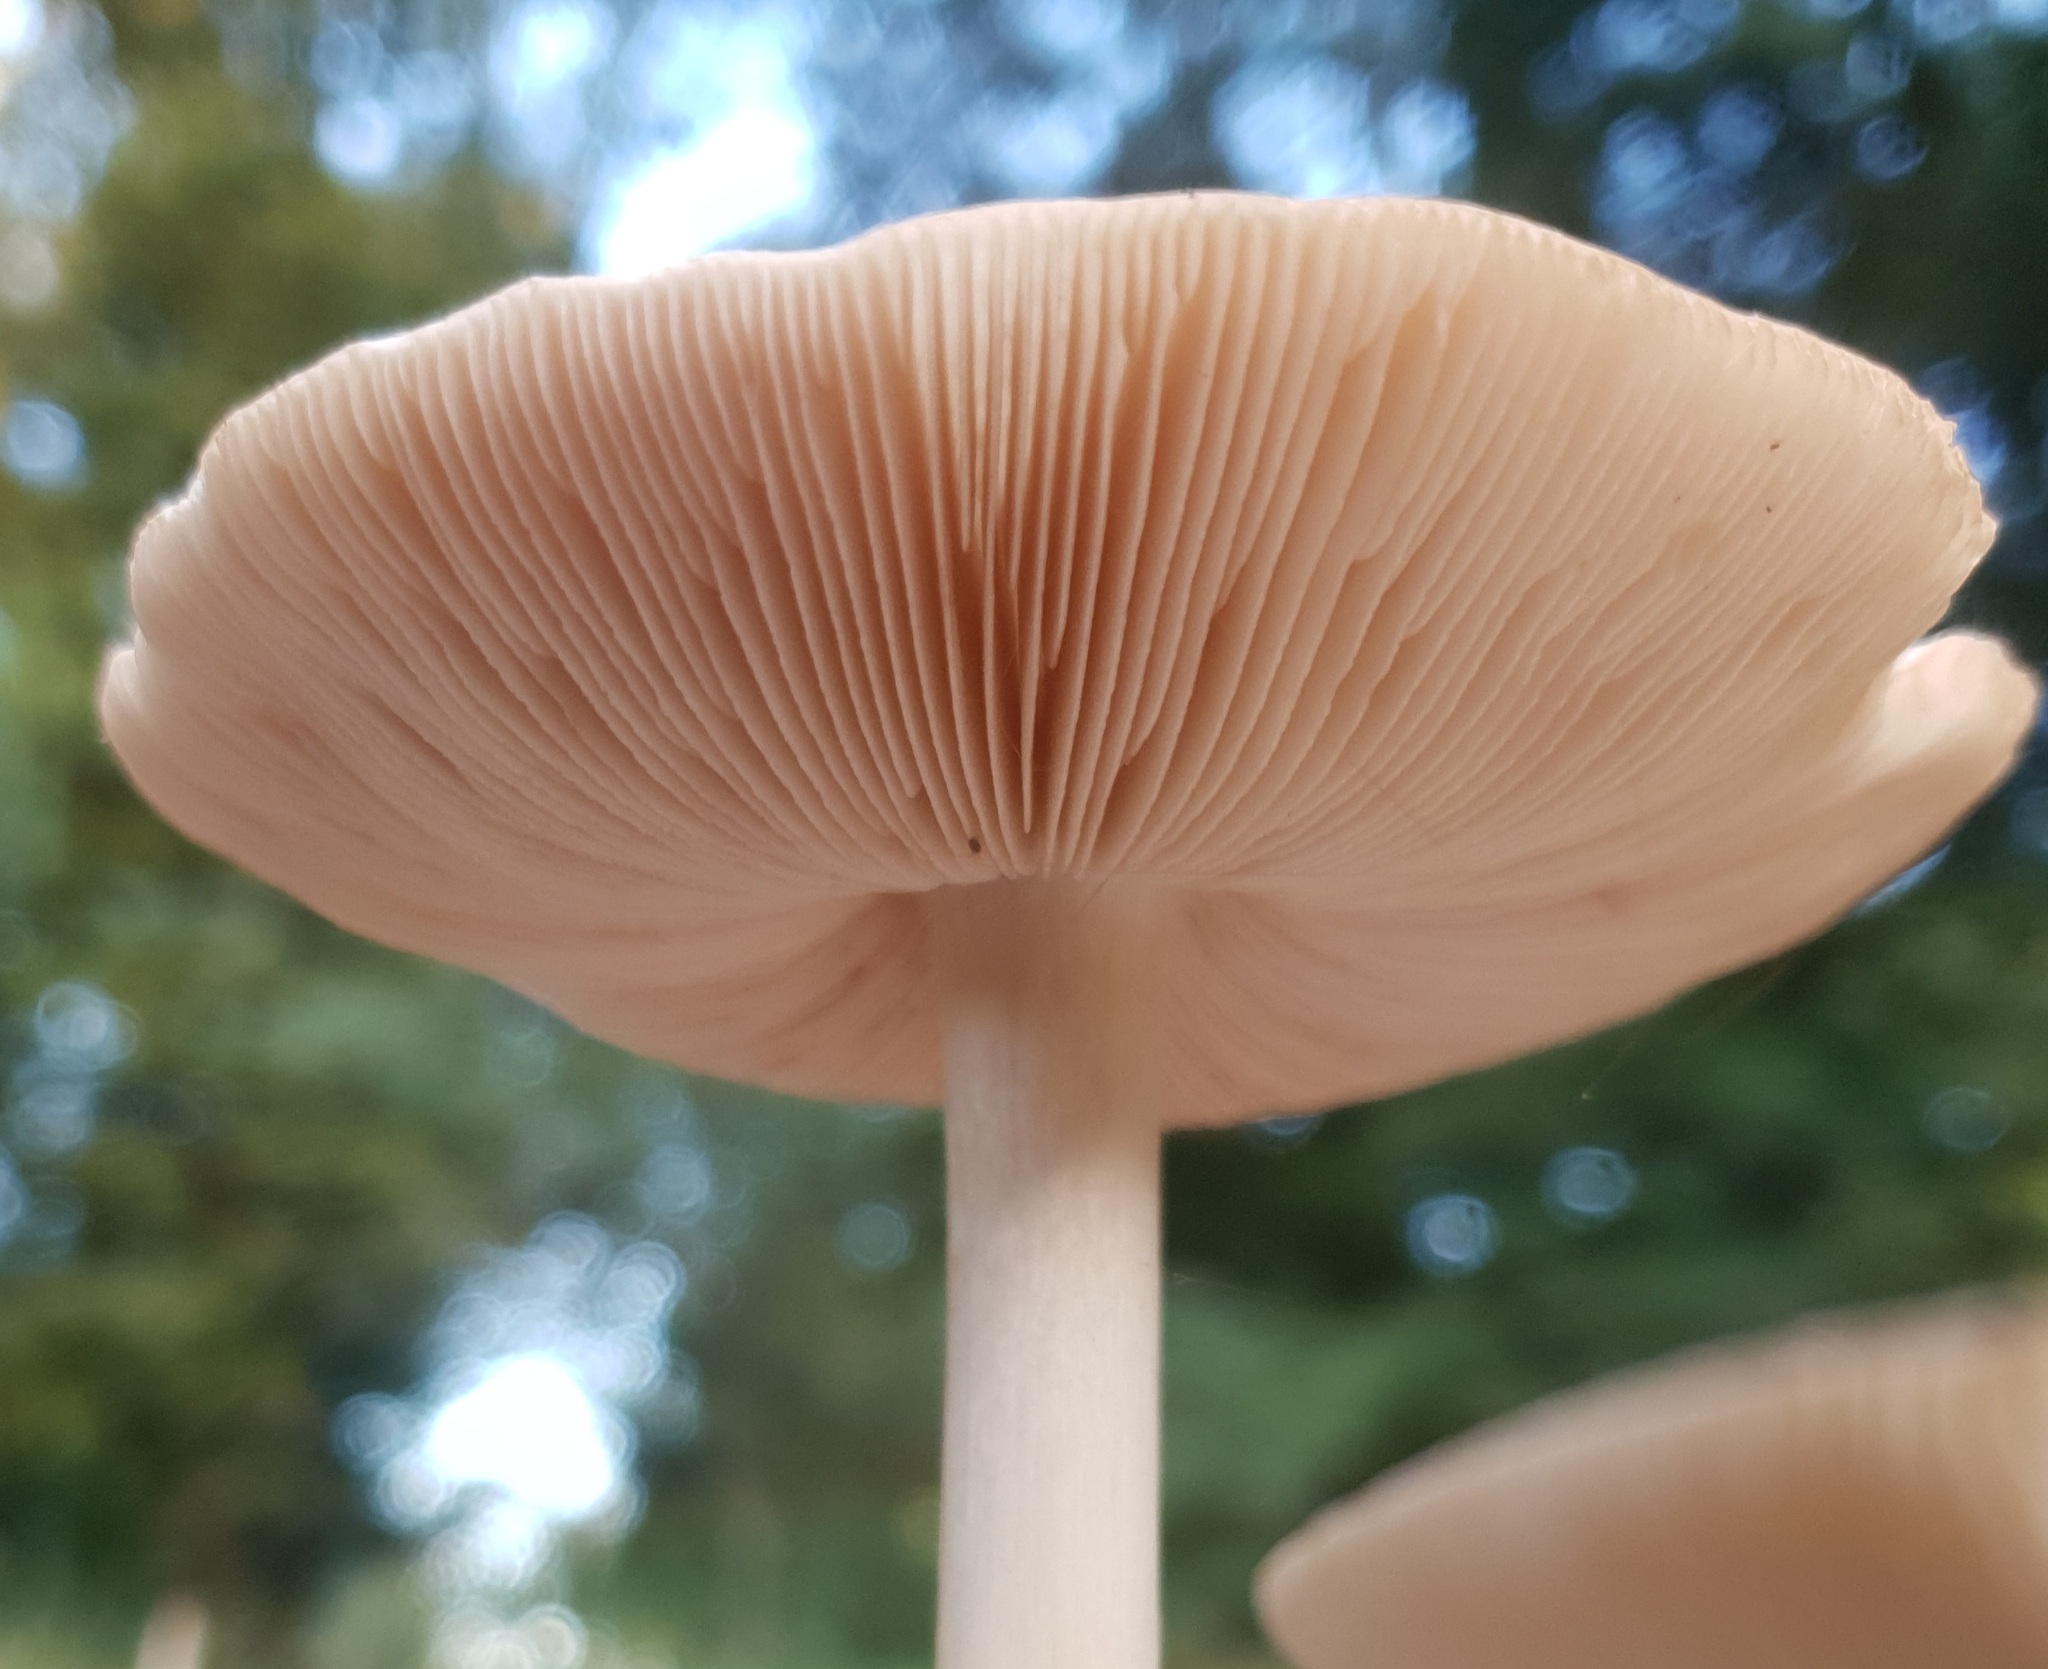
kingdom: Fungi
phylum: Basidiomycota
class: Agaricomycetes
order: Agaricales
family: Pluteaceae
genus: Volvopluteus
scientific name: Volvopluteus gloiocephalus
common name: Stubble rosegill
